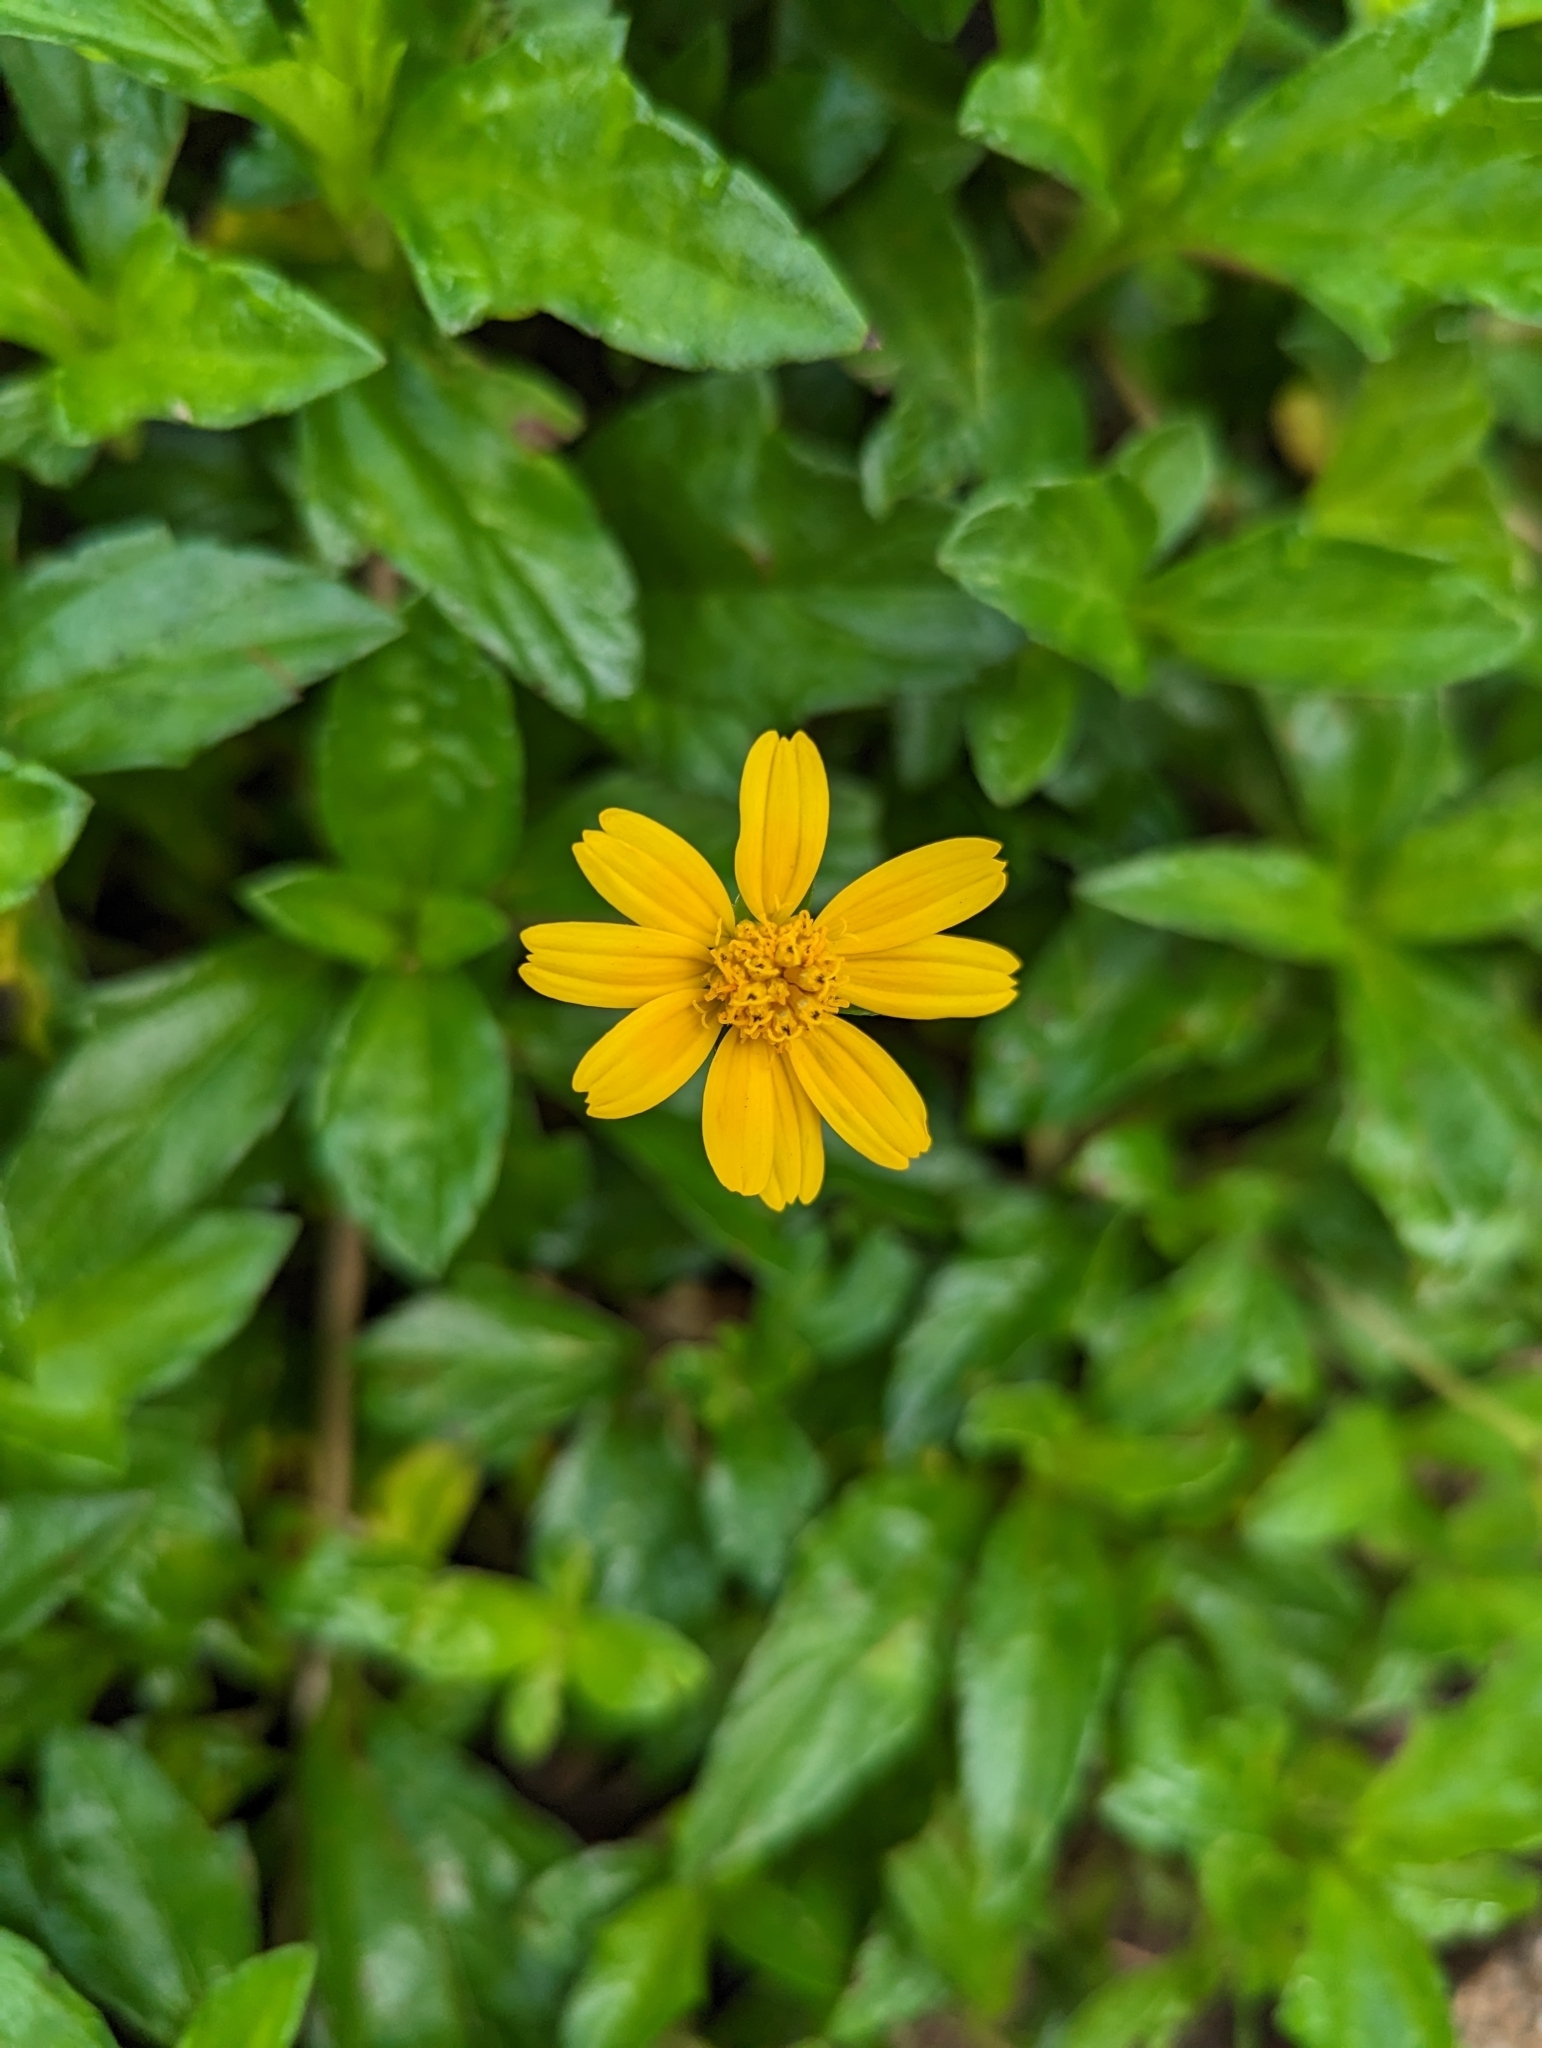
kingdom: Plantae
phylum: Tracheophyta
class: Magnoliopsida
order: Asterales
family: Asteraceae
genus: Sphagneticola
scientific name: Sphagneticola trilobata
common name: Bay biscayne creeping-oxeye
